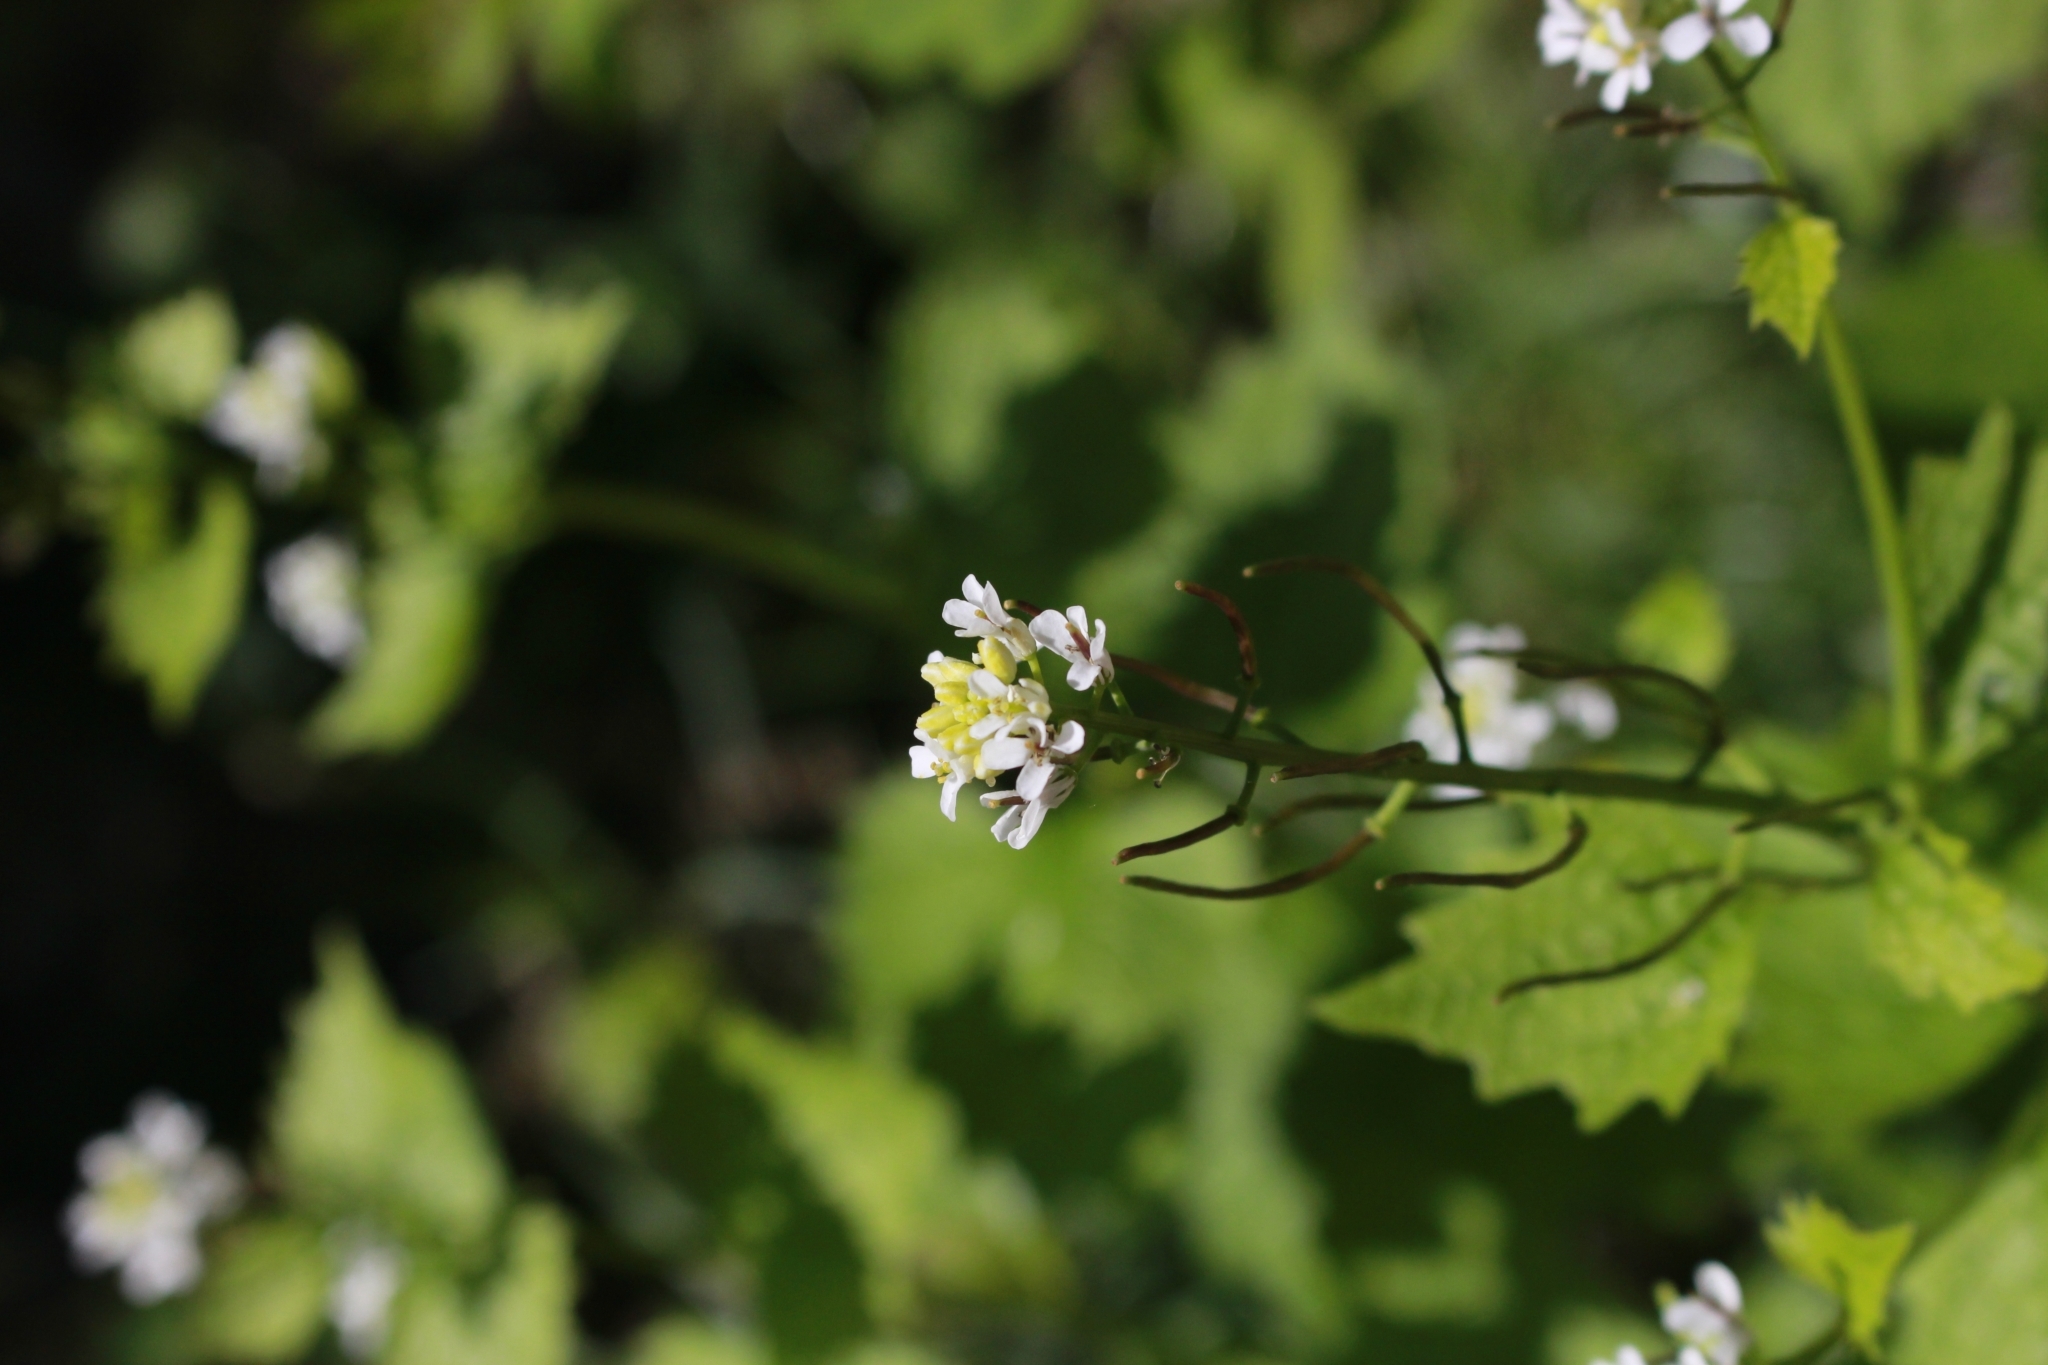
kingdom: Plantae
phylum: Tracheophyta
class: Magnoliopsida
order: Brassicales
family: Brassicaceae
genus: Alliaria
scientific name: Alliaria petiolata
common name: Garlic mustard
